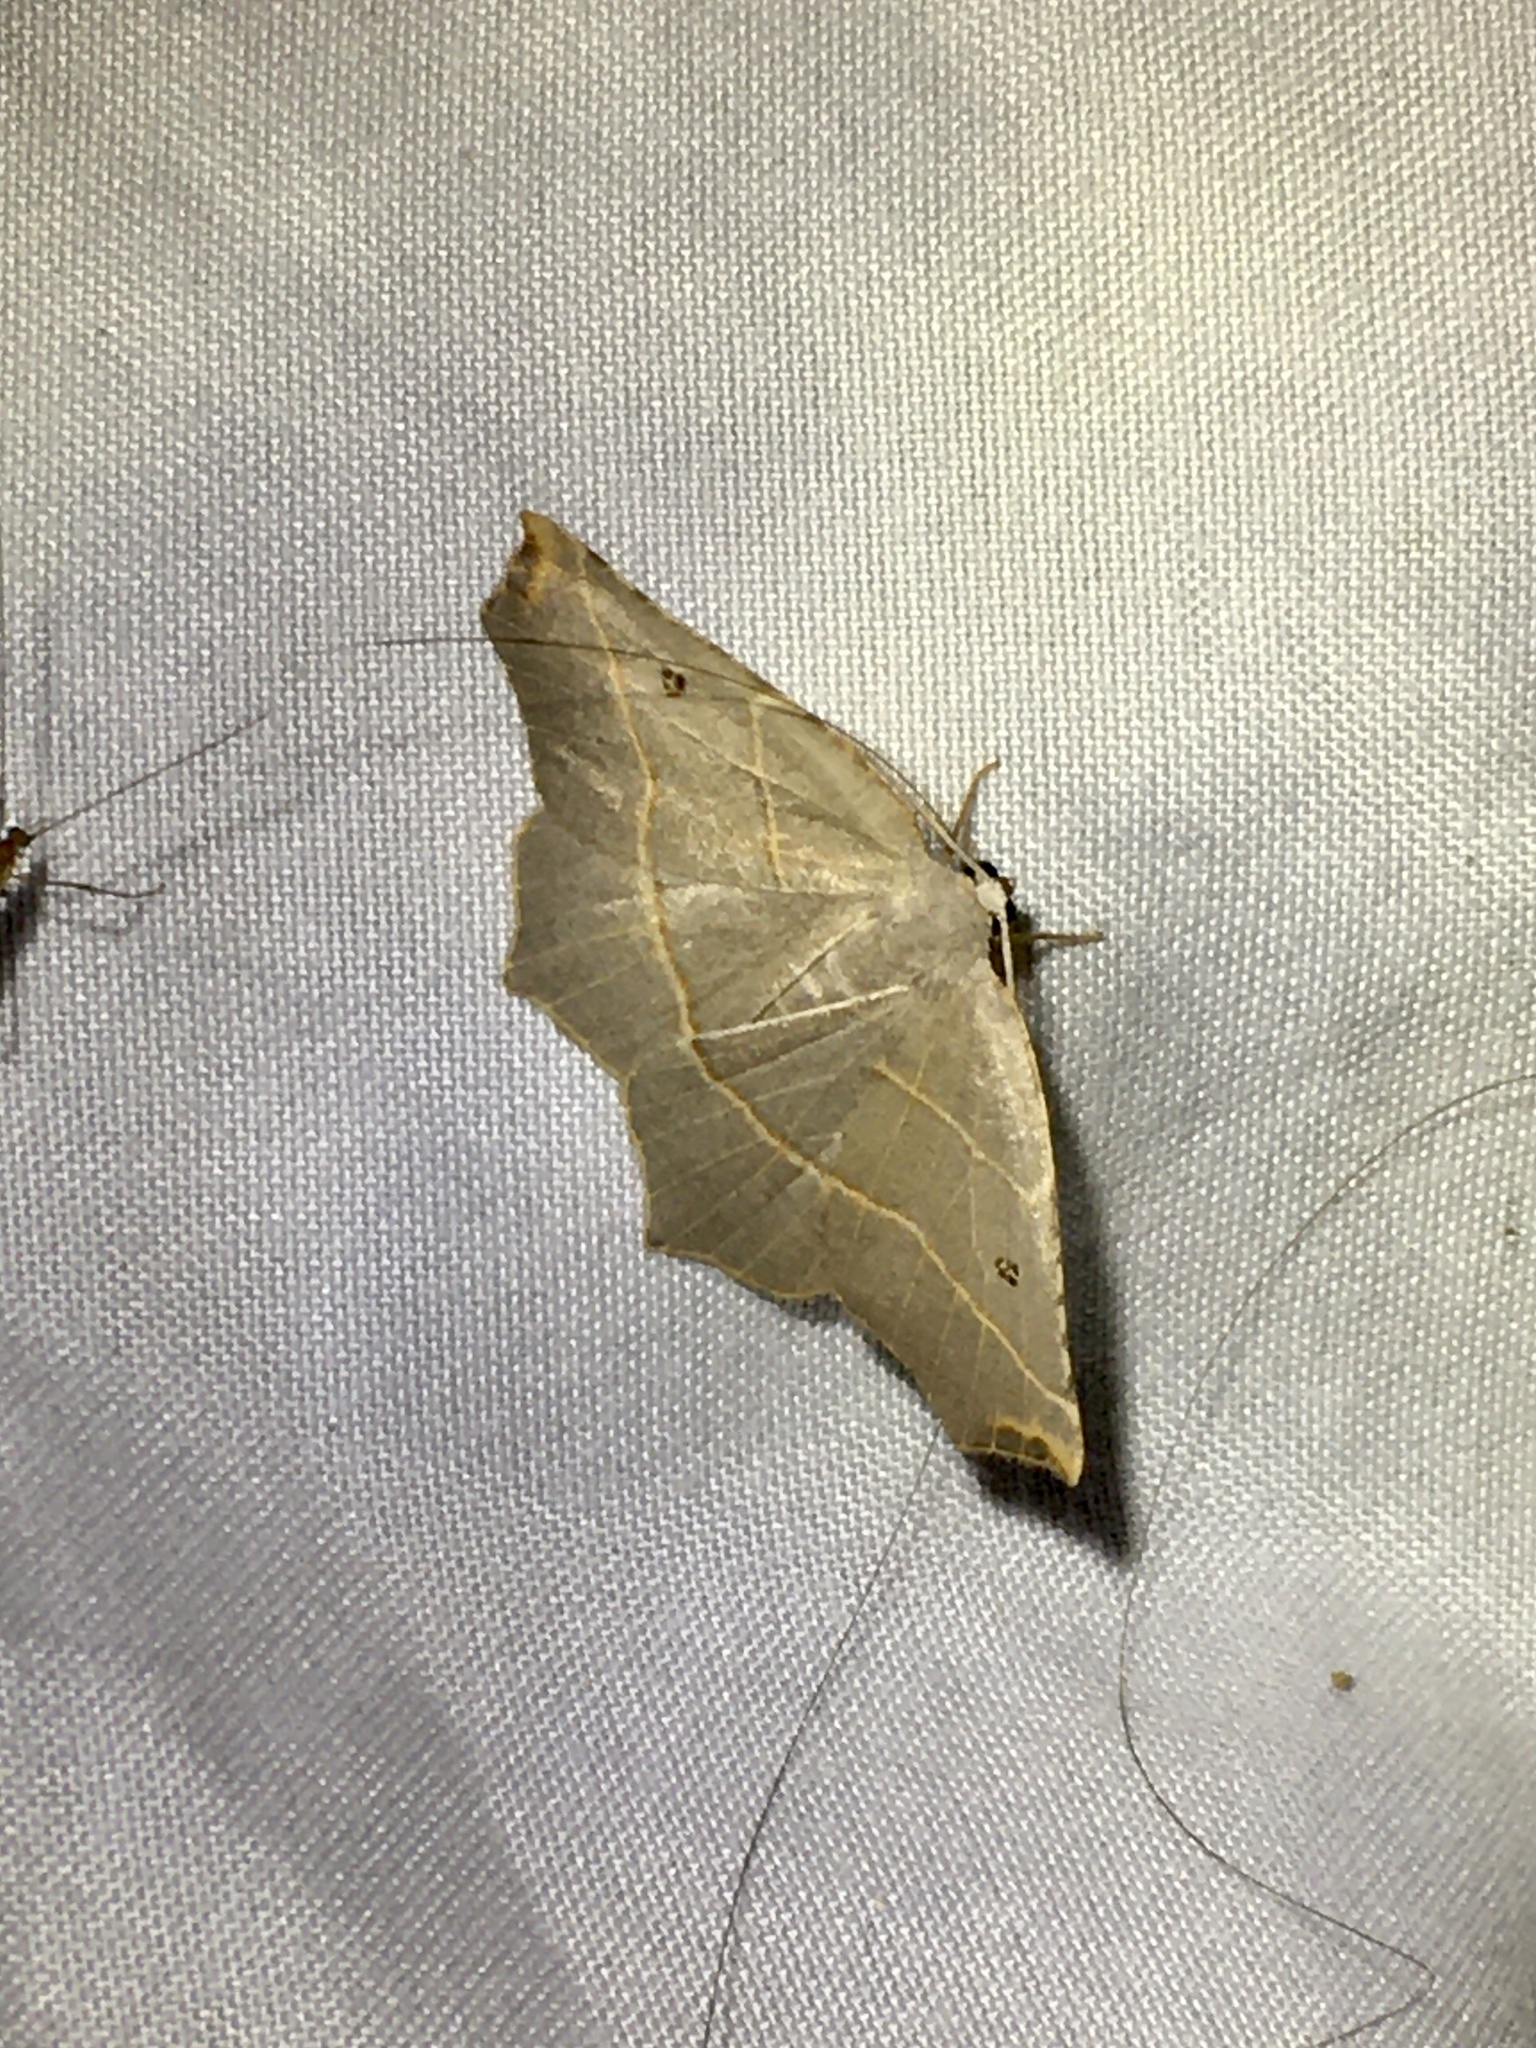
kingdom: Animalia
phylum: Arthropoda
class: Insecta
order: Lepidoptera
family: Geometridae
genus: Metanema
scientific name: Metanema inatomaria
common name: Pale metanema
